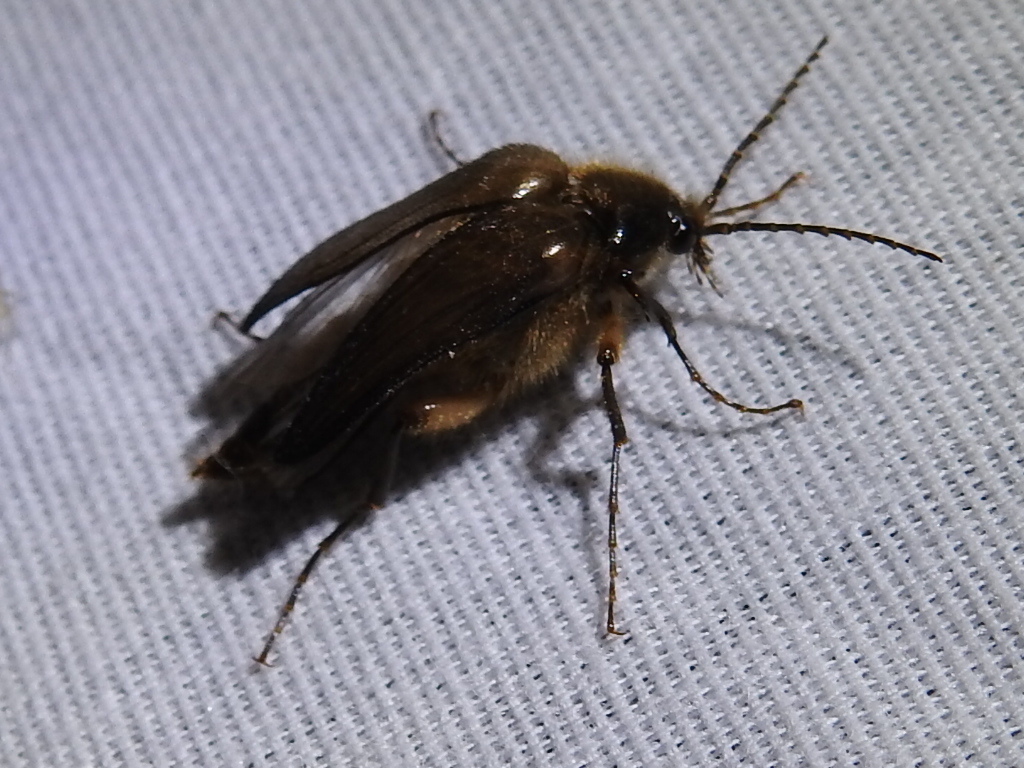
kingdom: Animalia
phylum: Arthropoda
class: Insecta
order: Coleoptera
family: Elateridae
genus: Scaptolenus
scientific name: Scaptolenus
